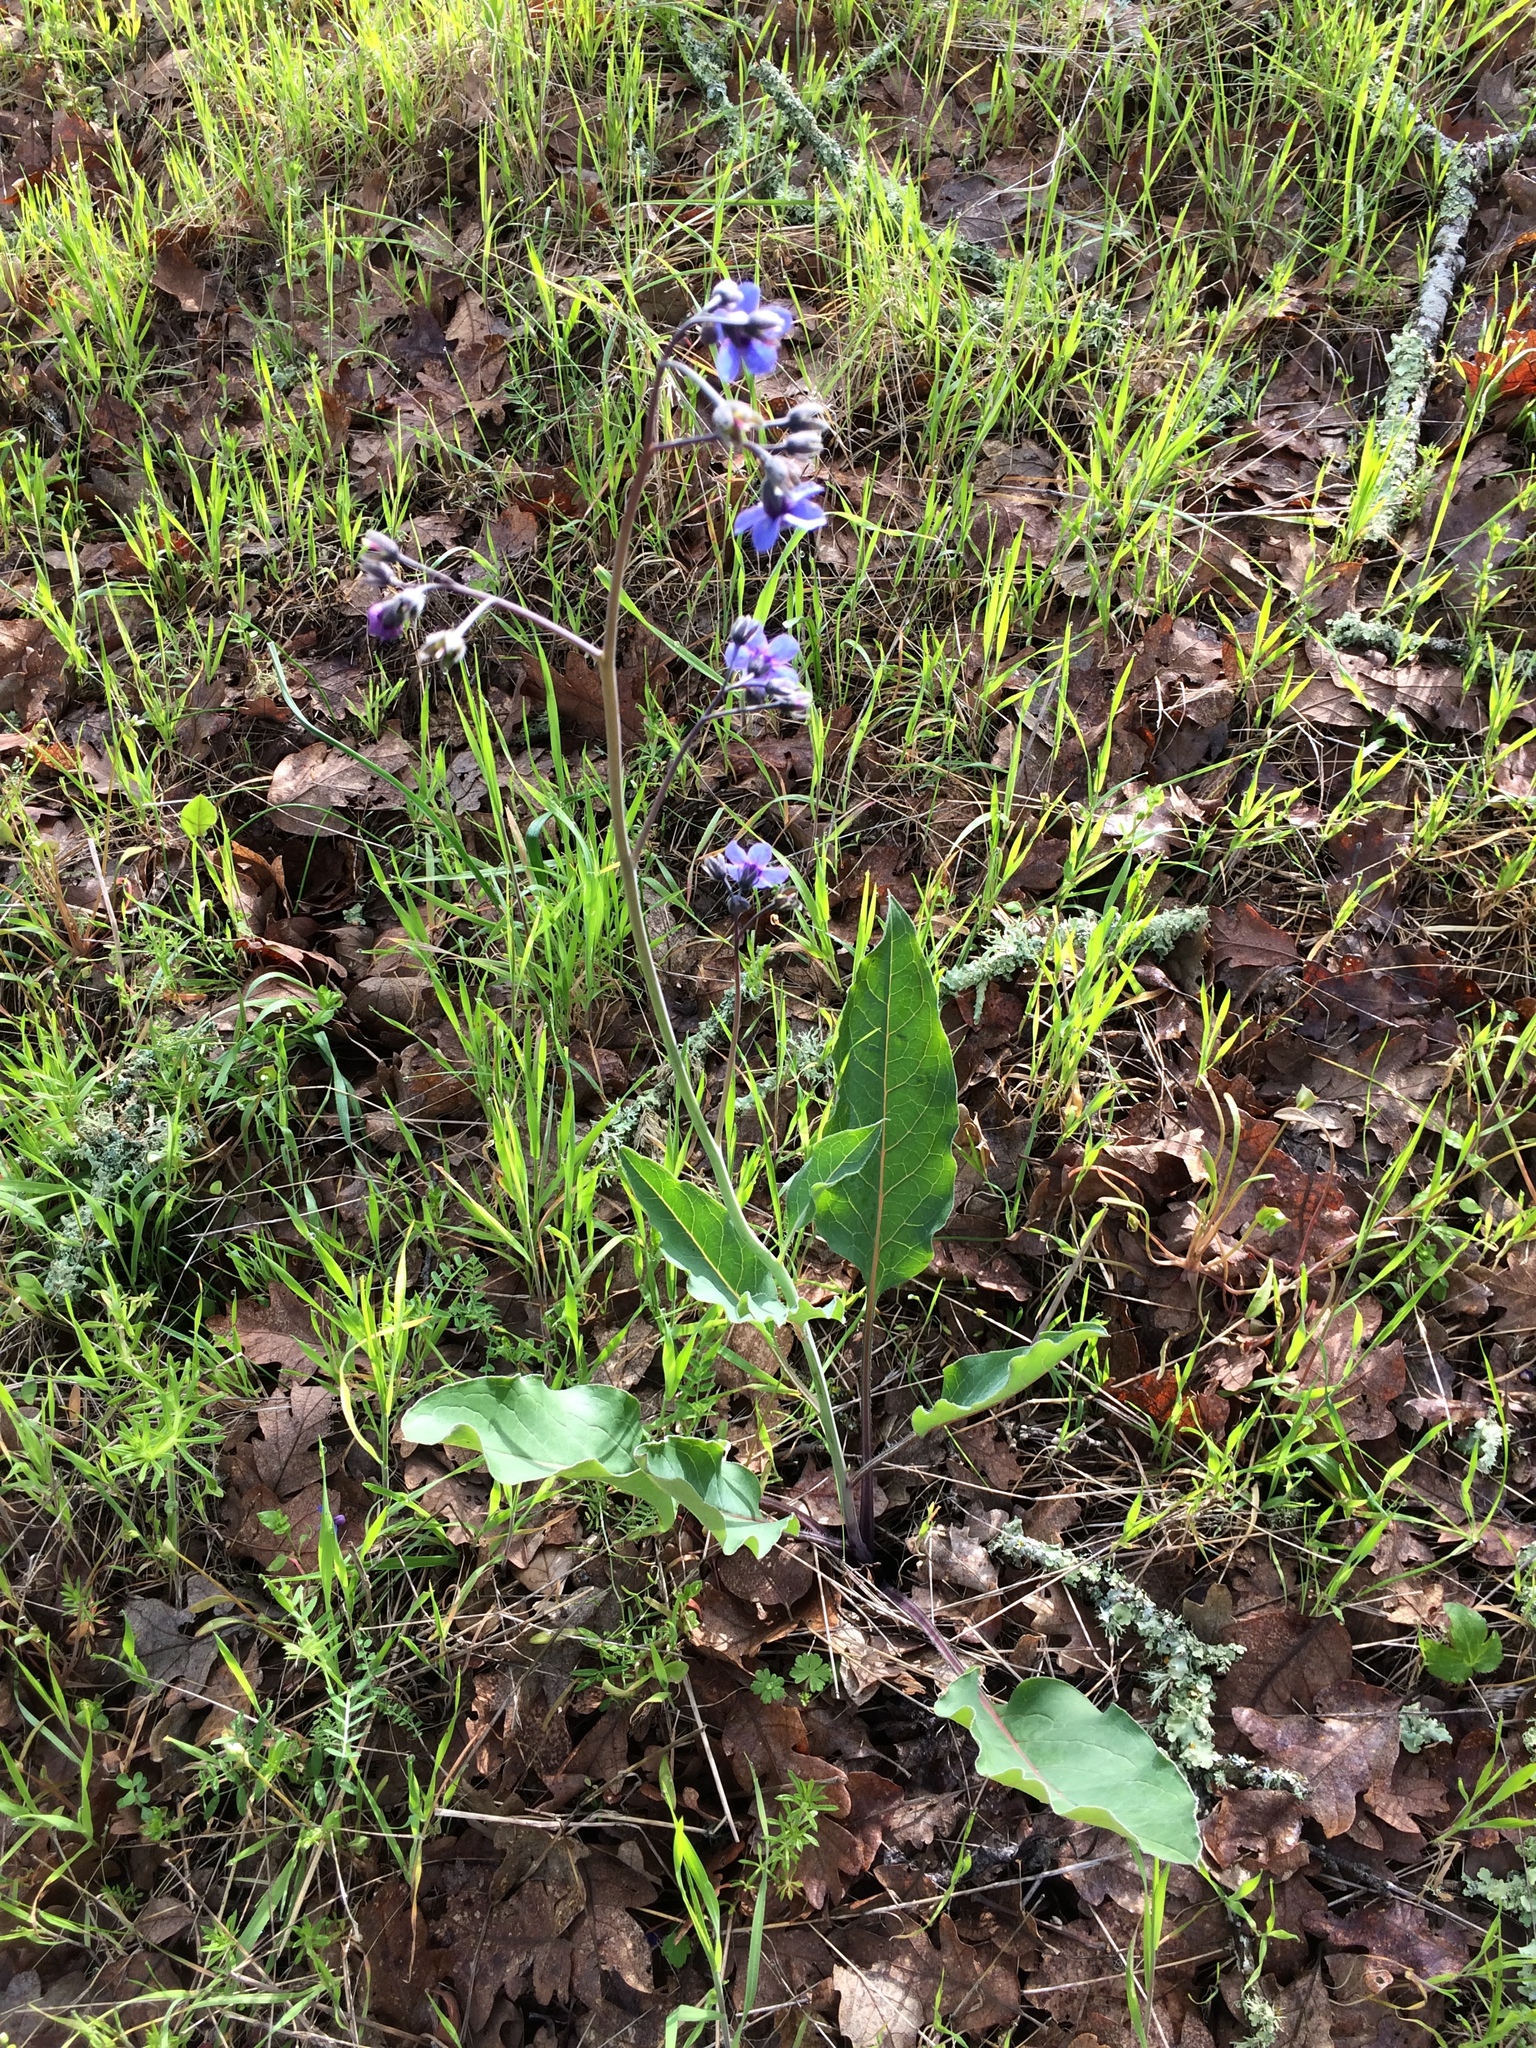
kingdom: Plantae
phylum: Tracheophyta
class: Magnoliopsida
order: Boraginales
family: Boraginaceae
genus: Adelinia
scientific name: Adelinia grande
